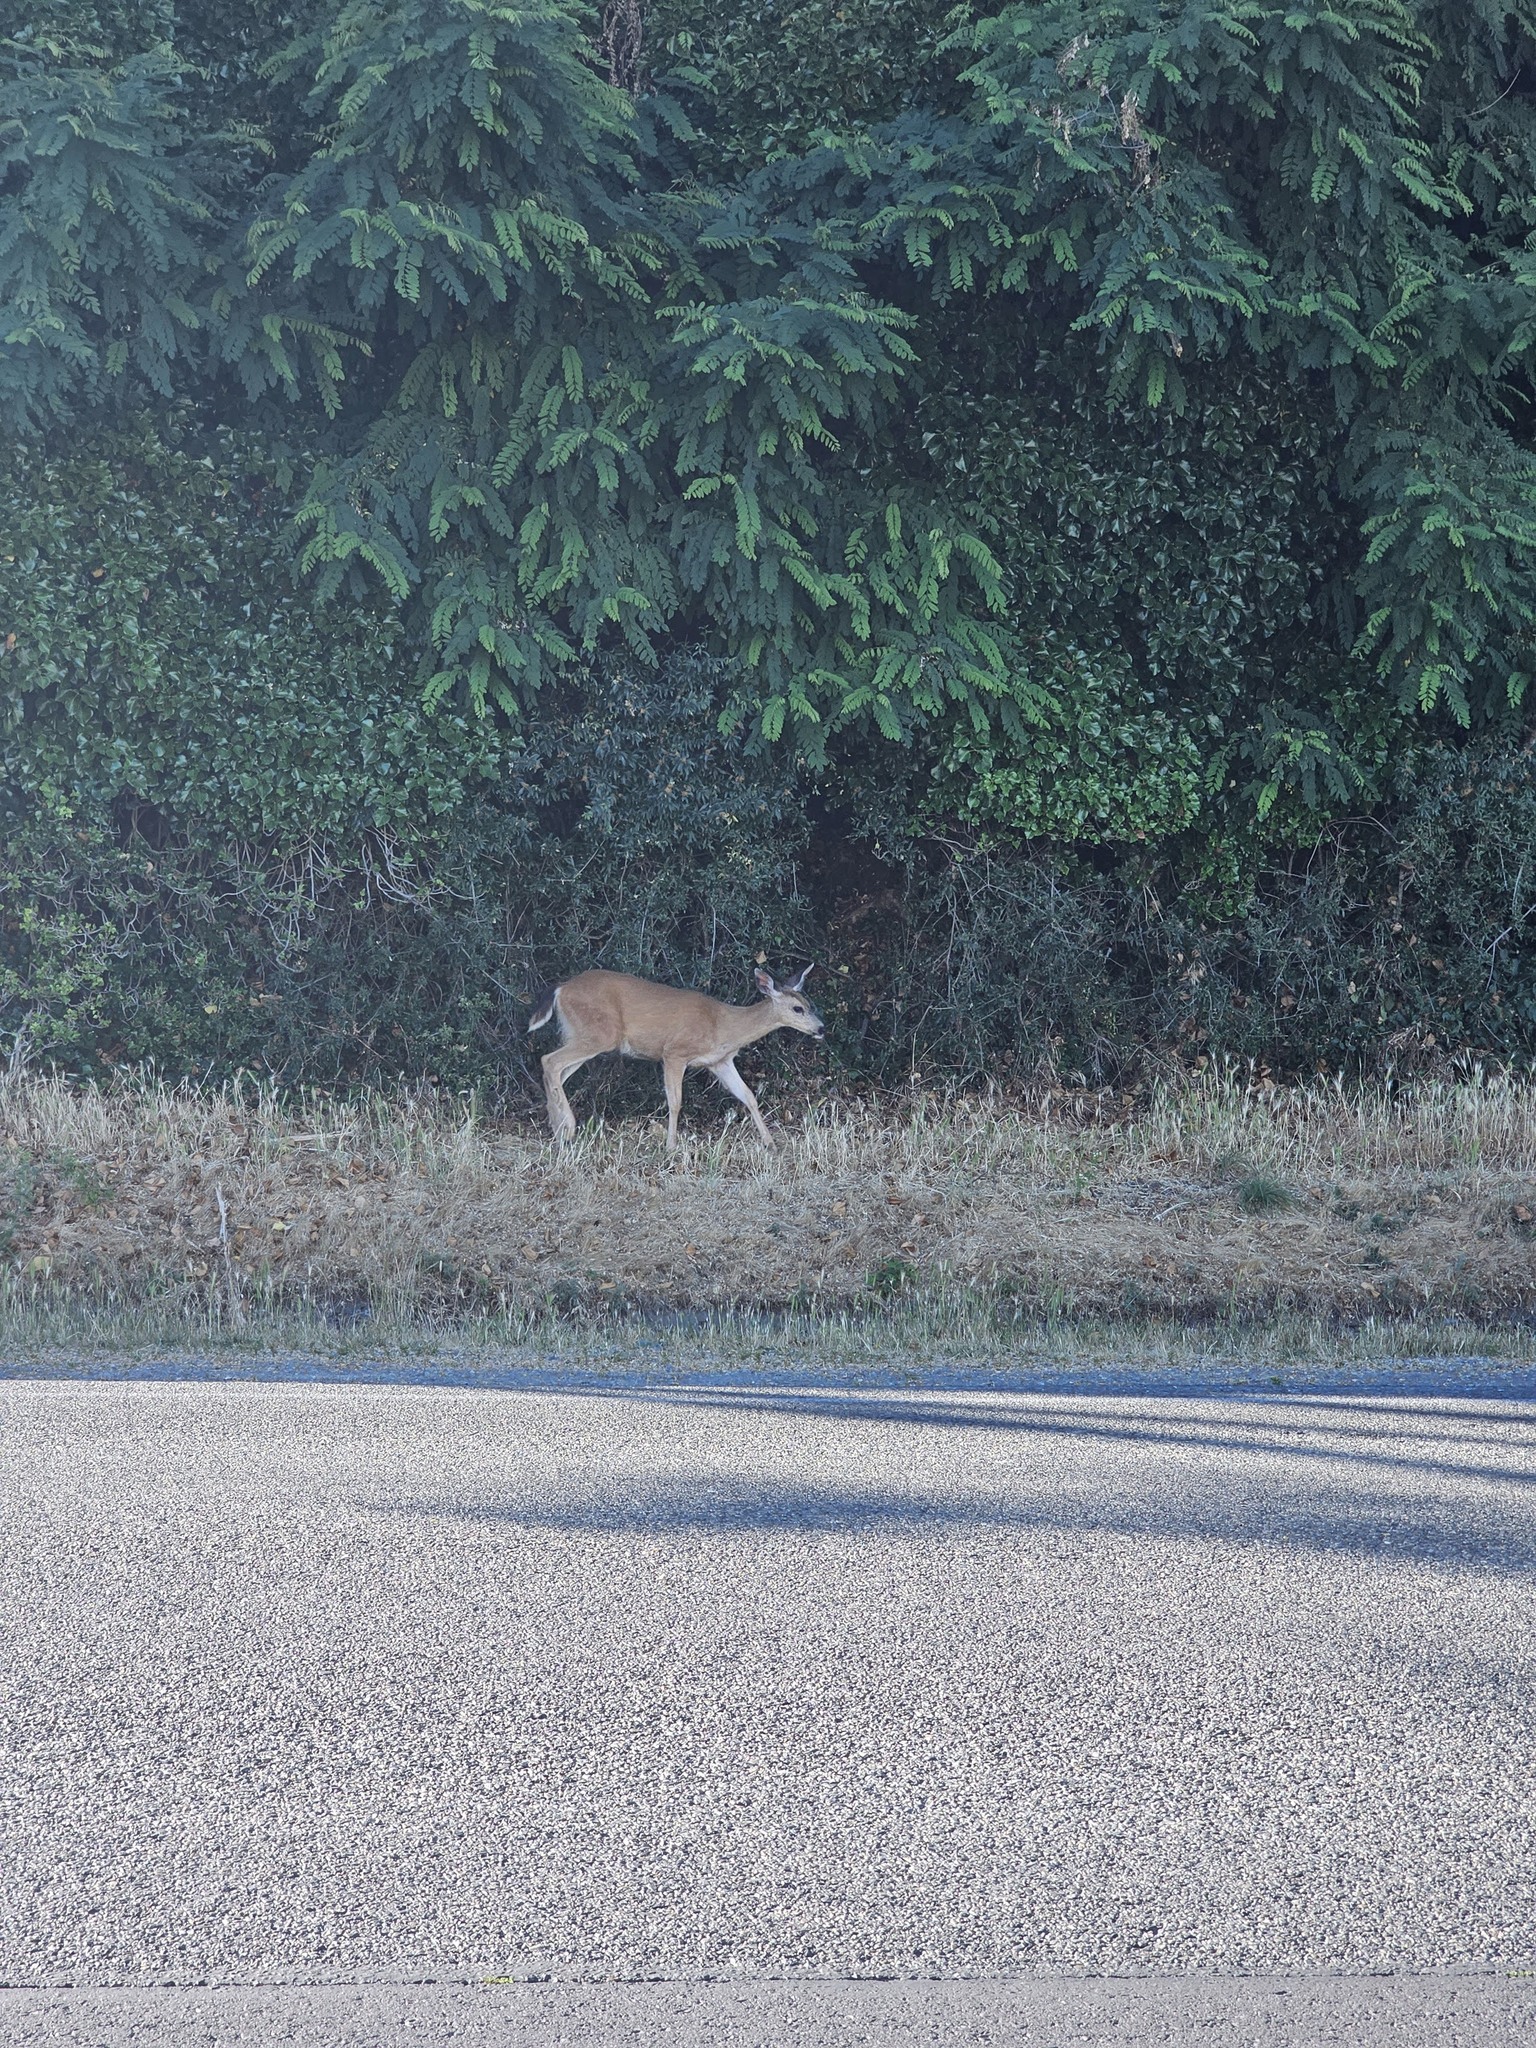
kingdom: Animalia
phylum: Chordata
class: Mammalia
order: Artiodactyla
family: Cervidae
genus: Odocoileus
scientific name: Odocoileus hemionus
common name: Mule deer
